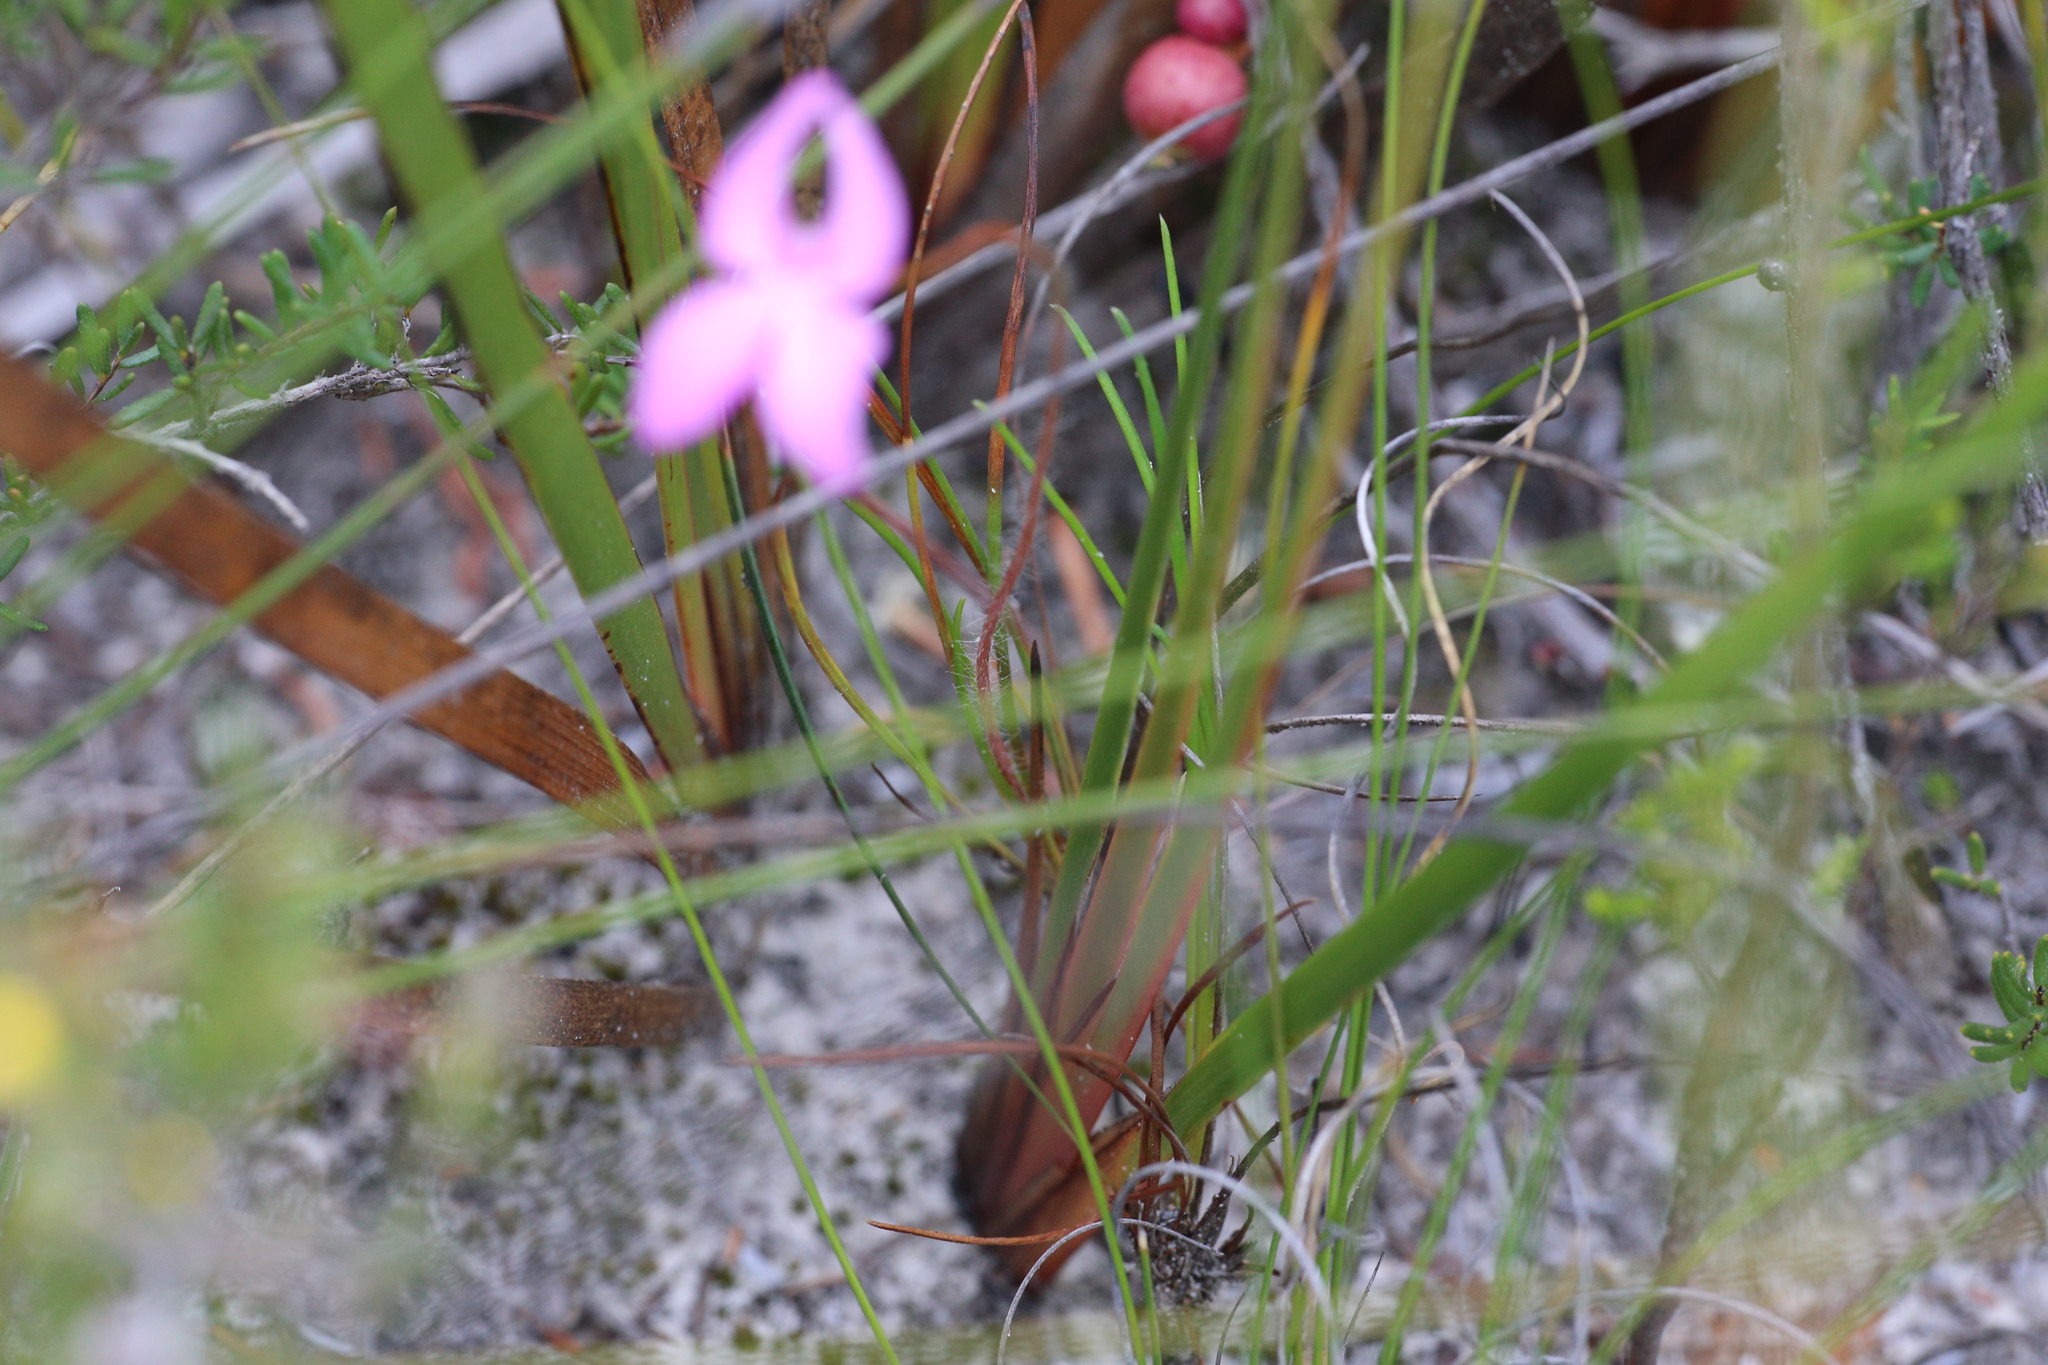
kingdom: Plantae
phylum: Tracheophyta
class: Magnoliopsida
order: Asterales
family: Stylidiaceae
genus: Stylidium
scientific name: Stylidium macranthum
